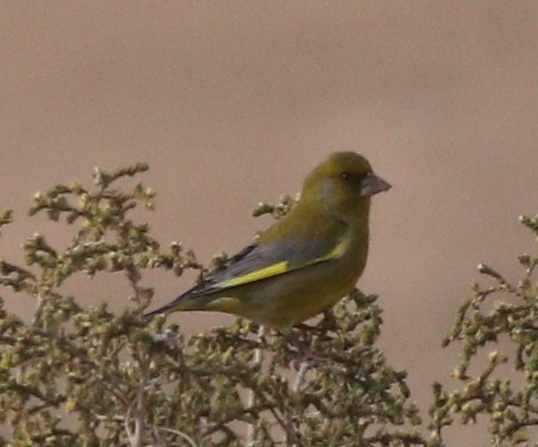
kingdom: Plantae
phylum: Tracheophyta
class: Liliopsida
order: Poales
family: Poaceae
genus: Chloris
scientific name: Chloris chloris
